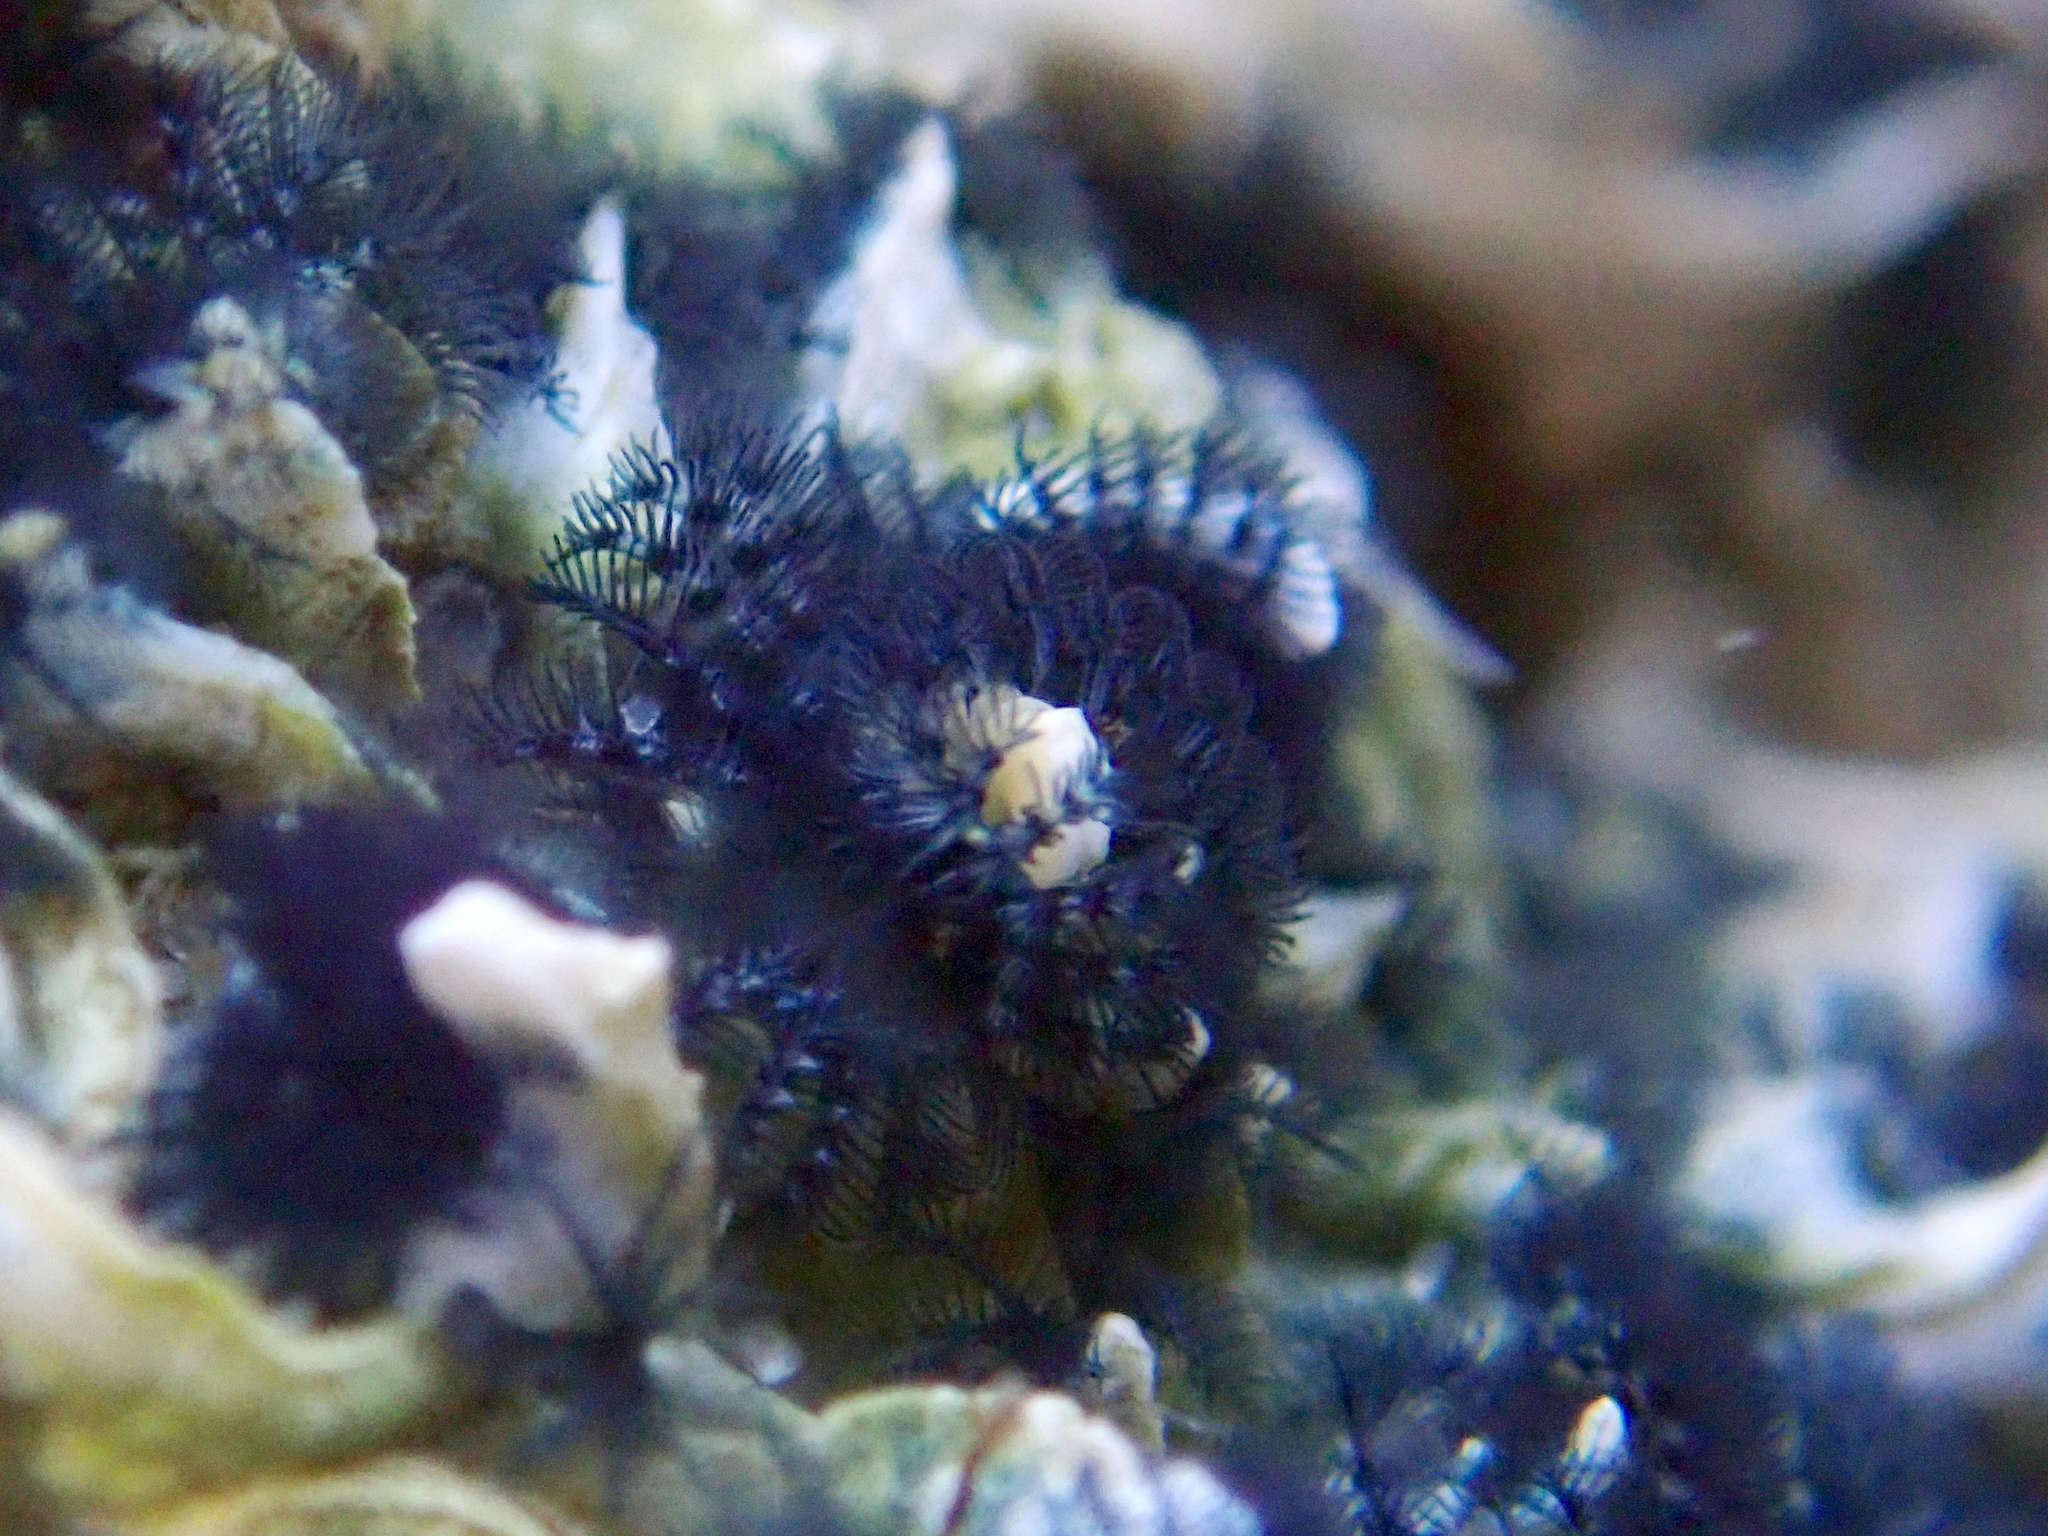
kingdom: Animalia
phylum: Annelida
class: Polychaeta
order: Sabellida
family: Serpulidae
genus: Spirobranchus
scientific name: Spirobranchus cariniferus
